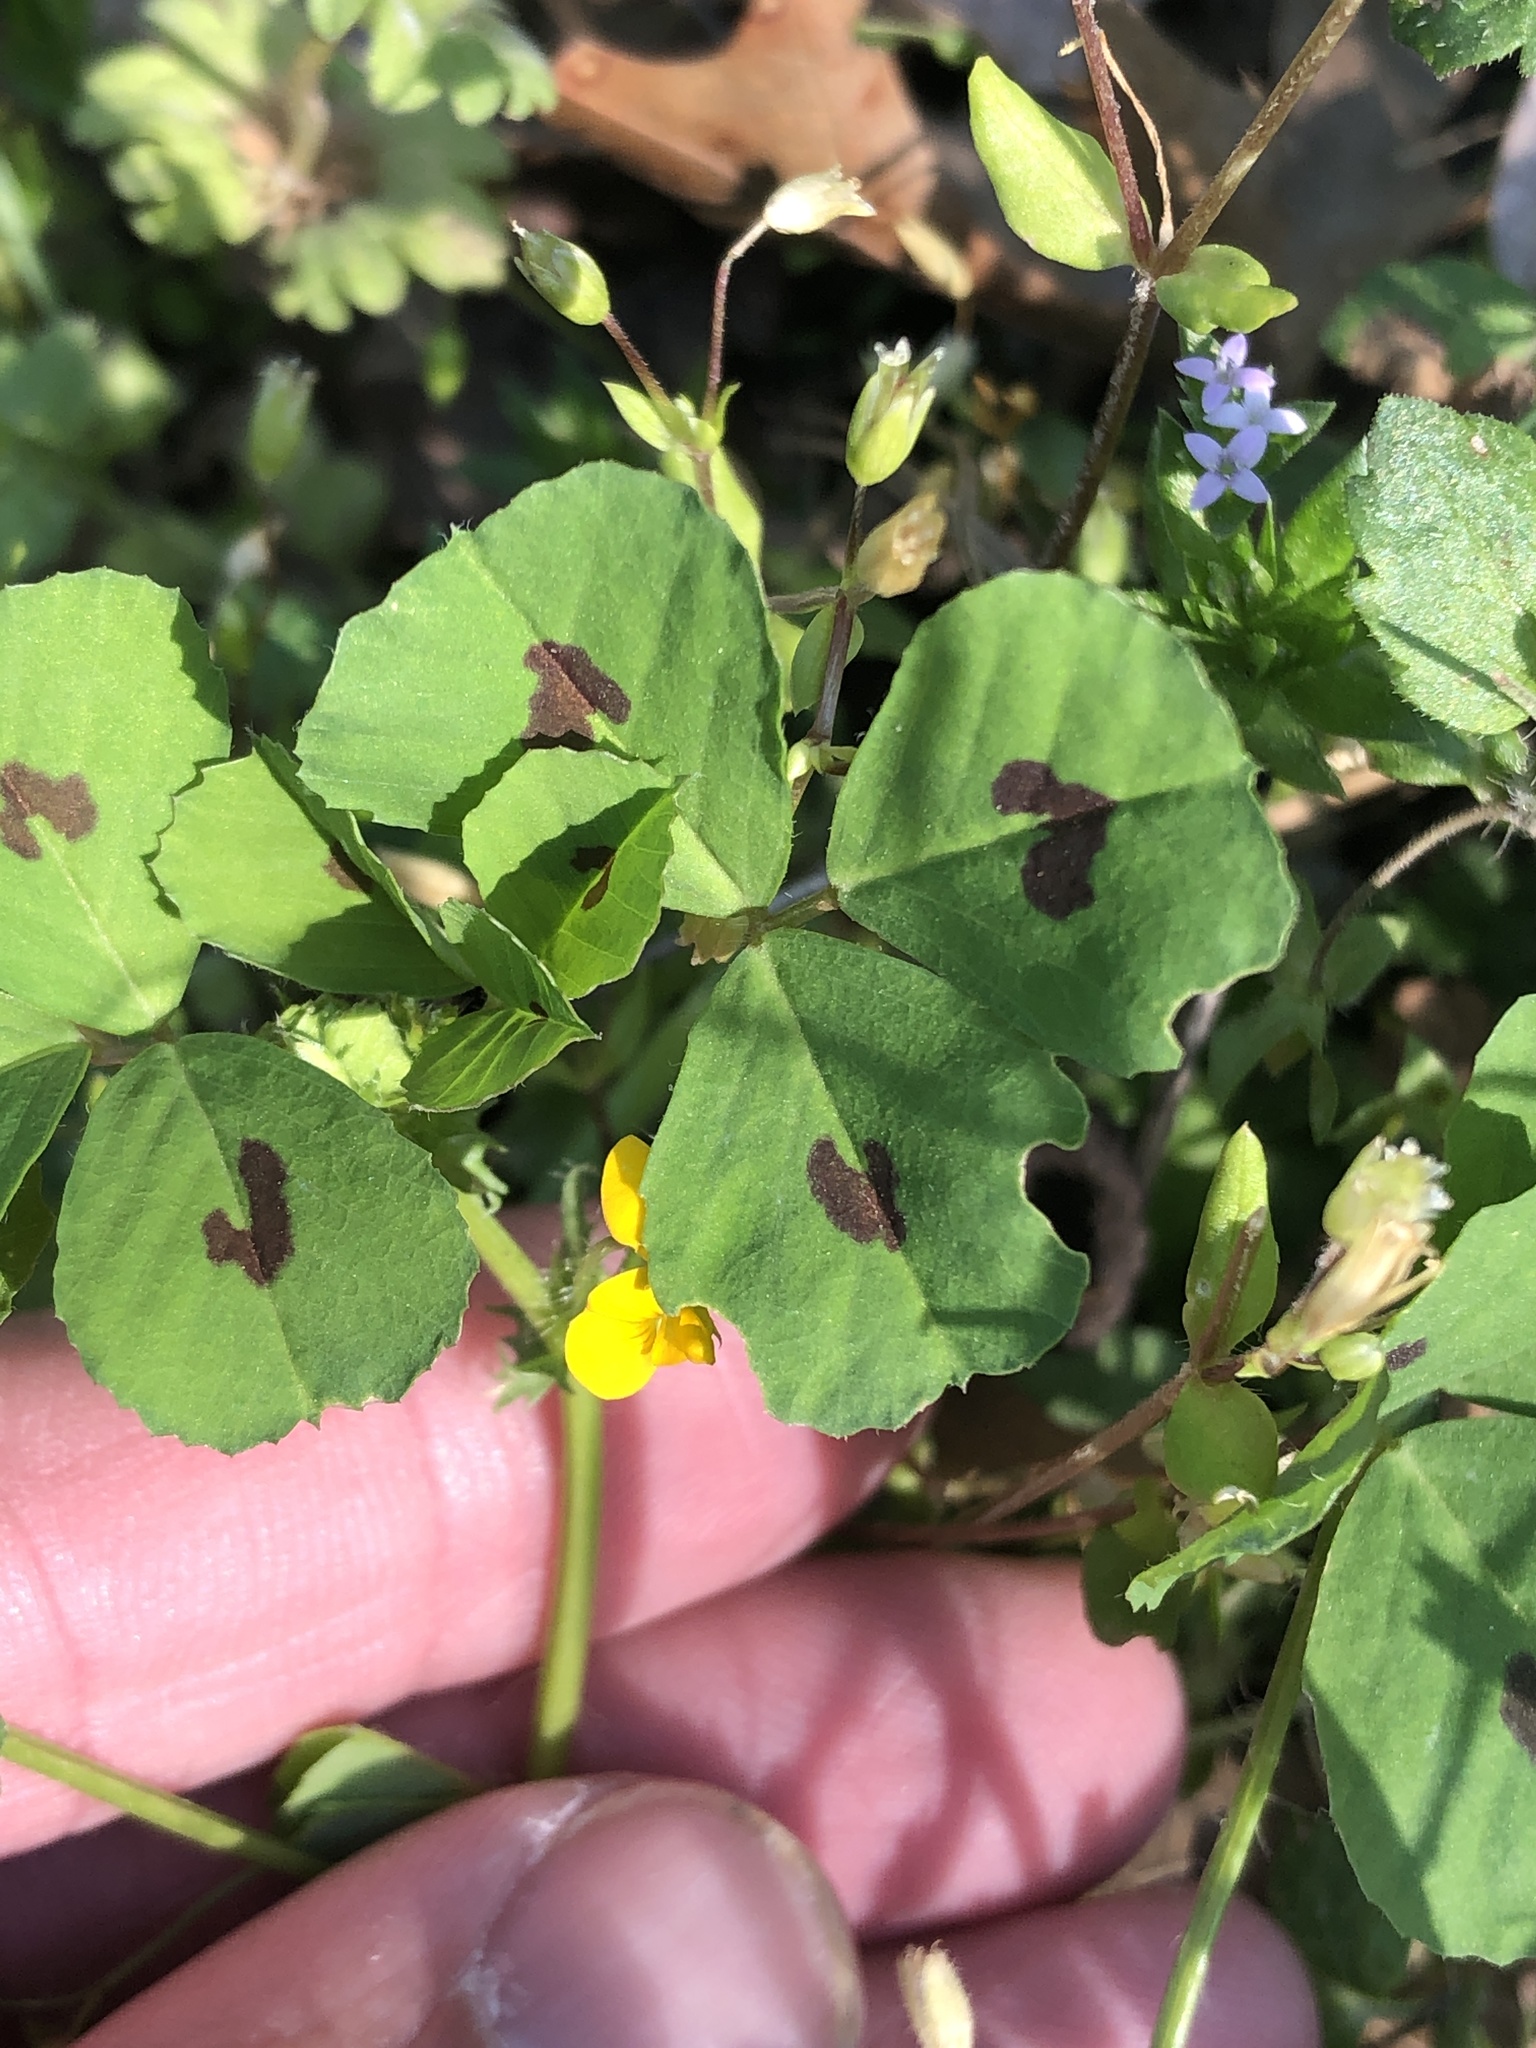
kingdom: Plantae
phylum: Tracheophyta
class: Magnoliopsida
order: Fabales
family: Fabaceae
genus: Medicago
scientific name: Medicago arabica
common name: Spotted medick
